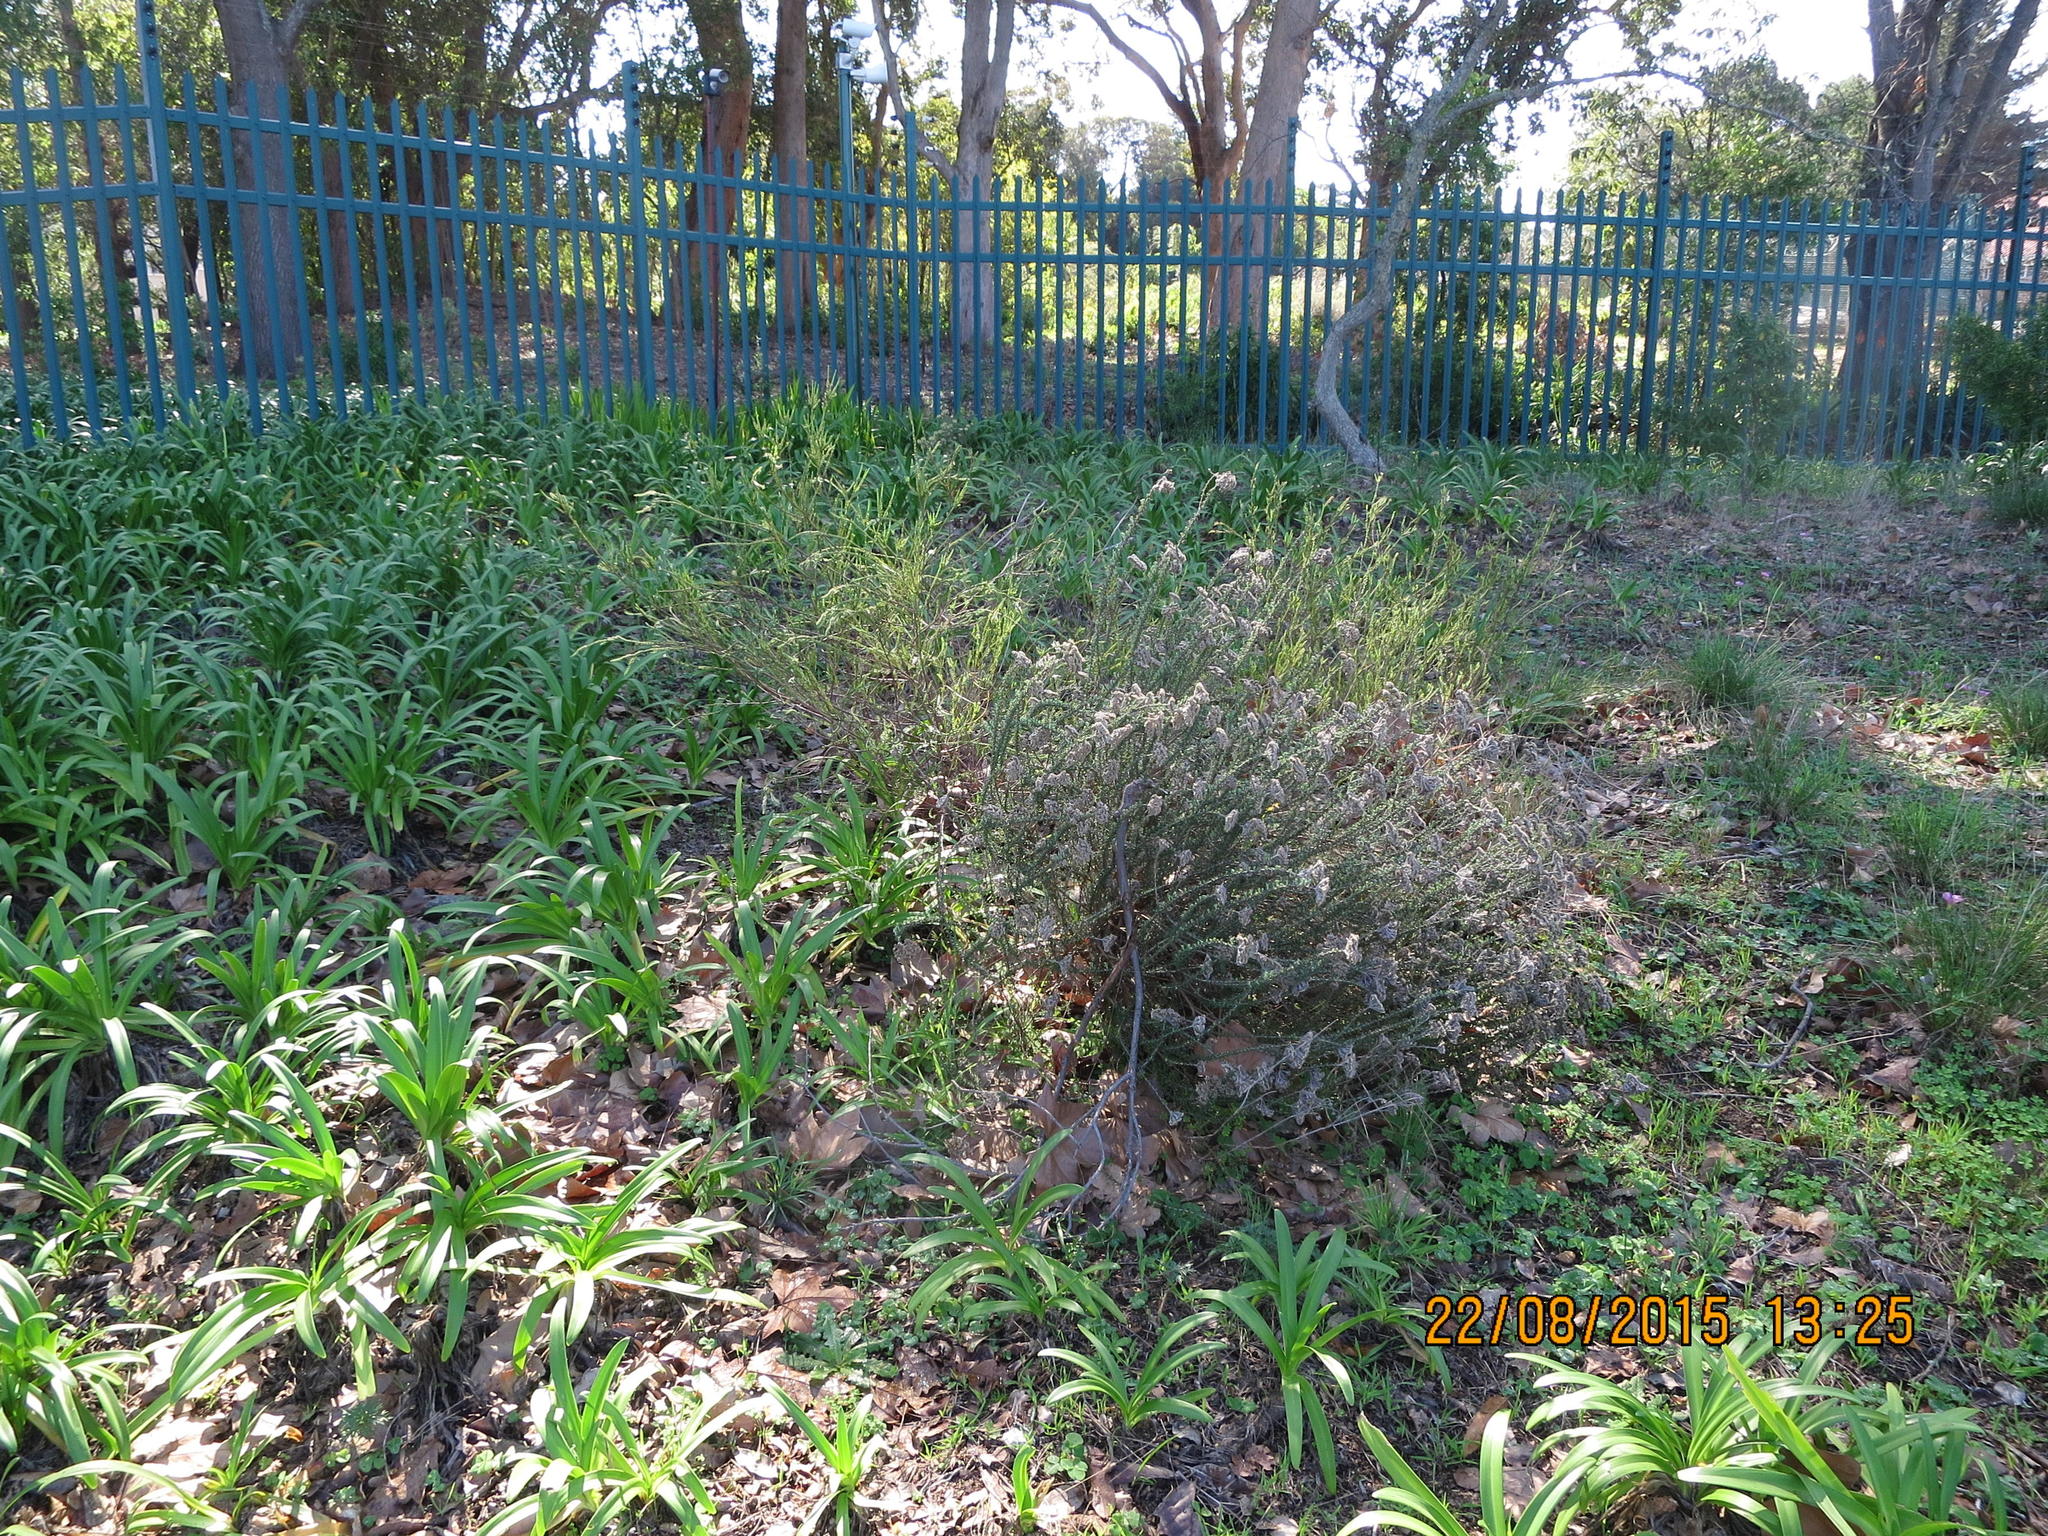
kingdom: Plantae
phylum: Tracheophyta
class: Liliopsida
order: Asparagales
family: Amaryllidaceae
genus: Agapanthus
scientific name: Agapanthus praecox
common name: African-lily
